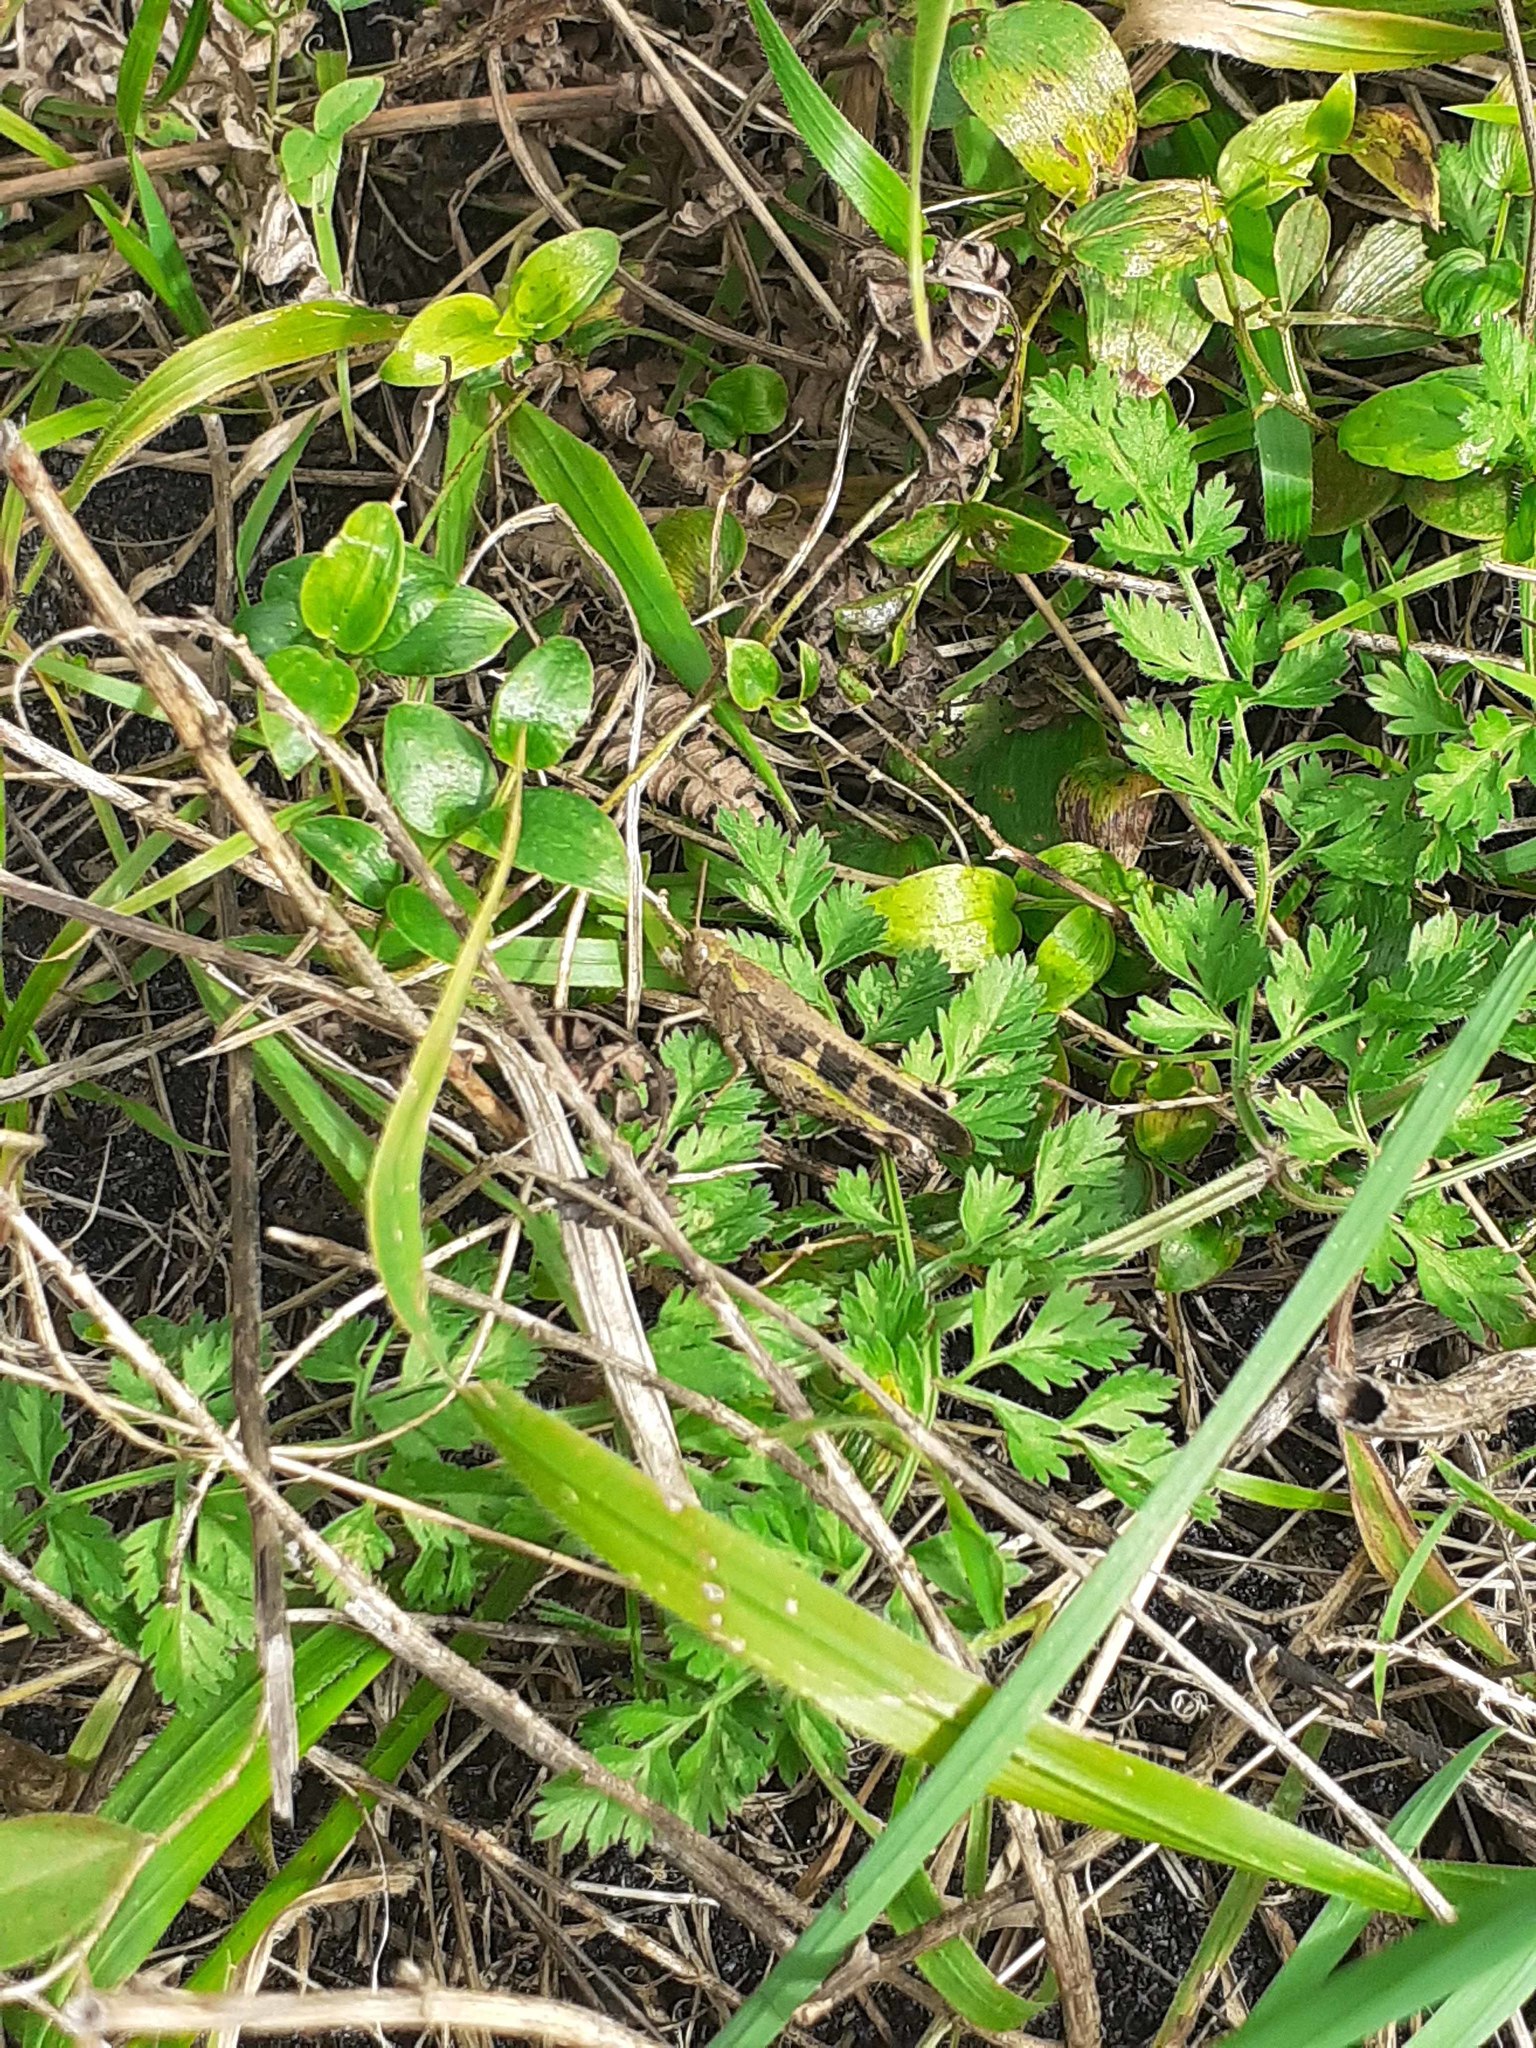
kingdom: Animalia
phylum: Arthropoda
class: Insecta
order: Orthoptera
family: Acrididae
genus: Aiolopus
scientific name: Aiolopus strepens
